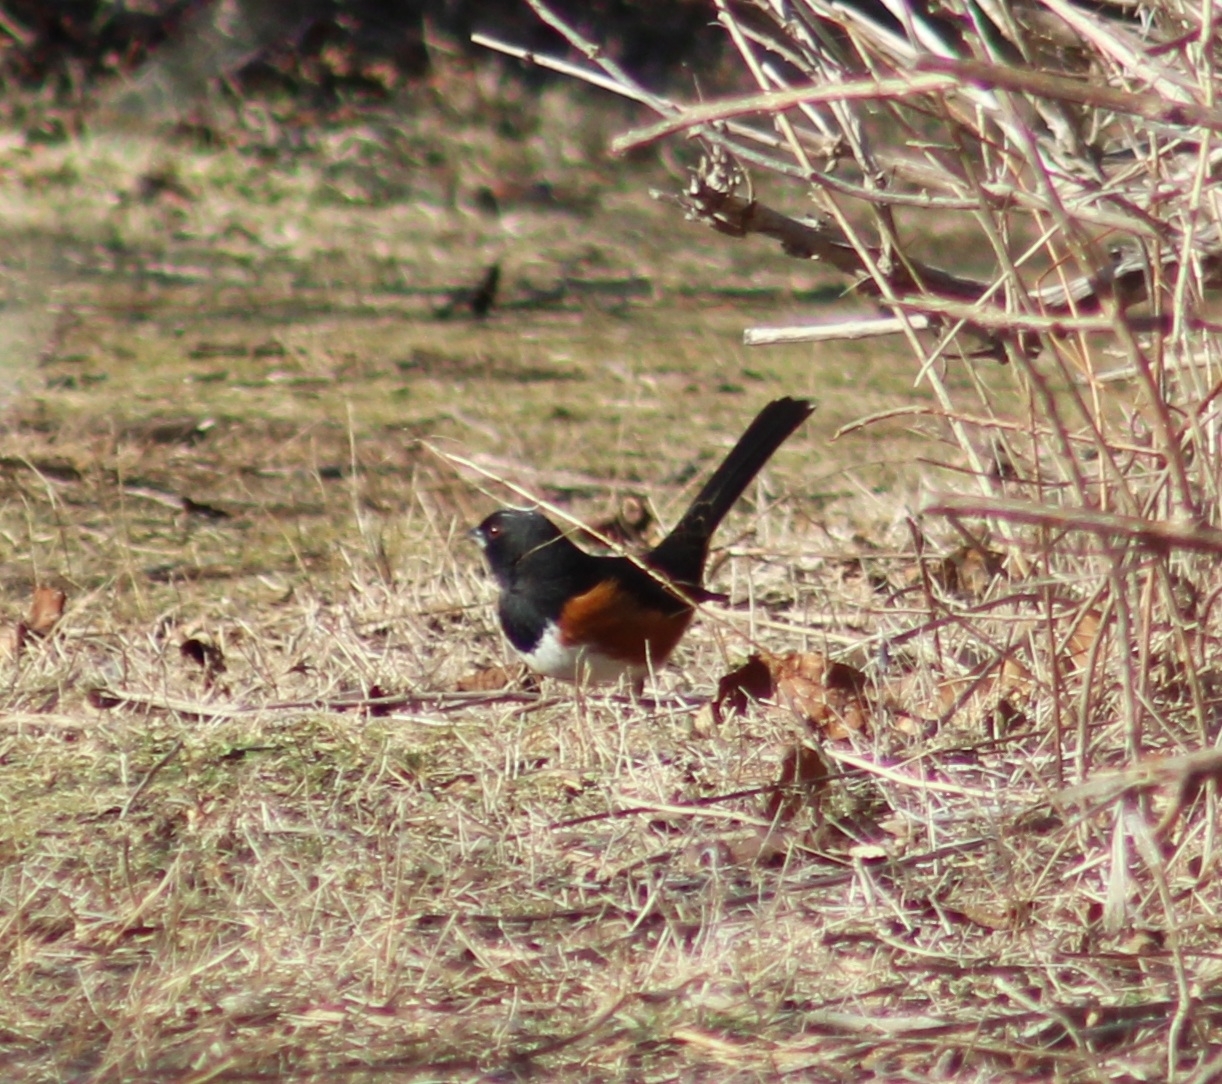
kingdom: Animalia
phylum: Chordata
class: Aves
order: Passeriformes
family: Passerellidae
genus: Pipilo
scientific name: Pipilo erythrophthalmus
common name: Eastern towhee
